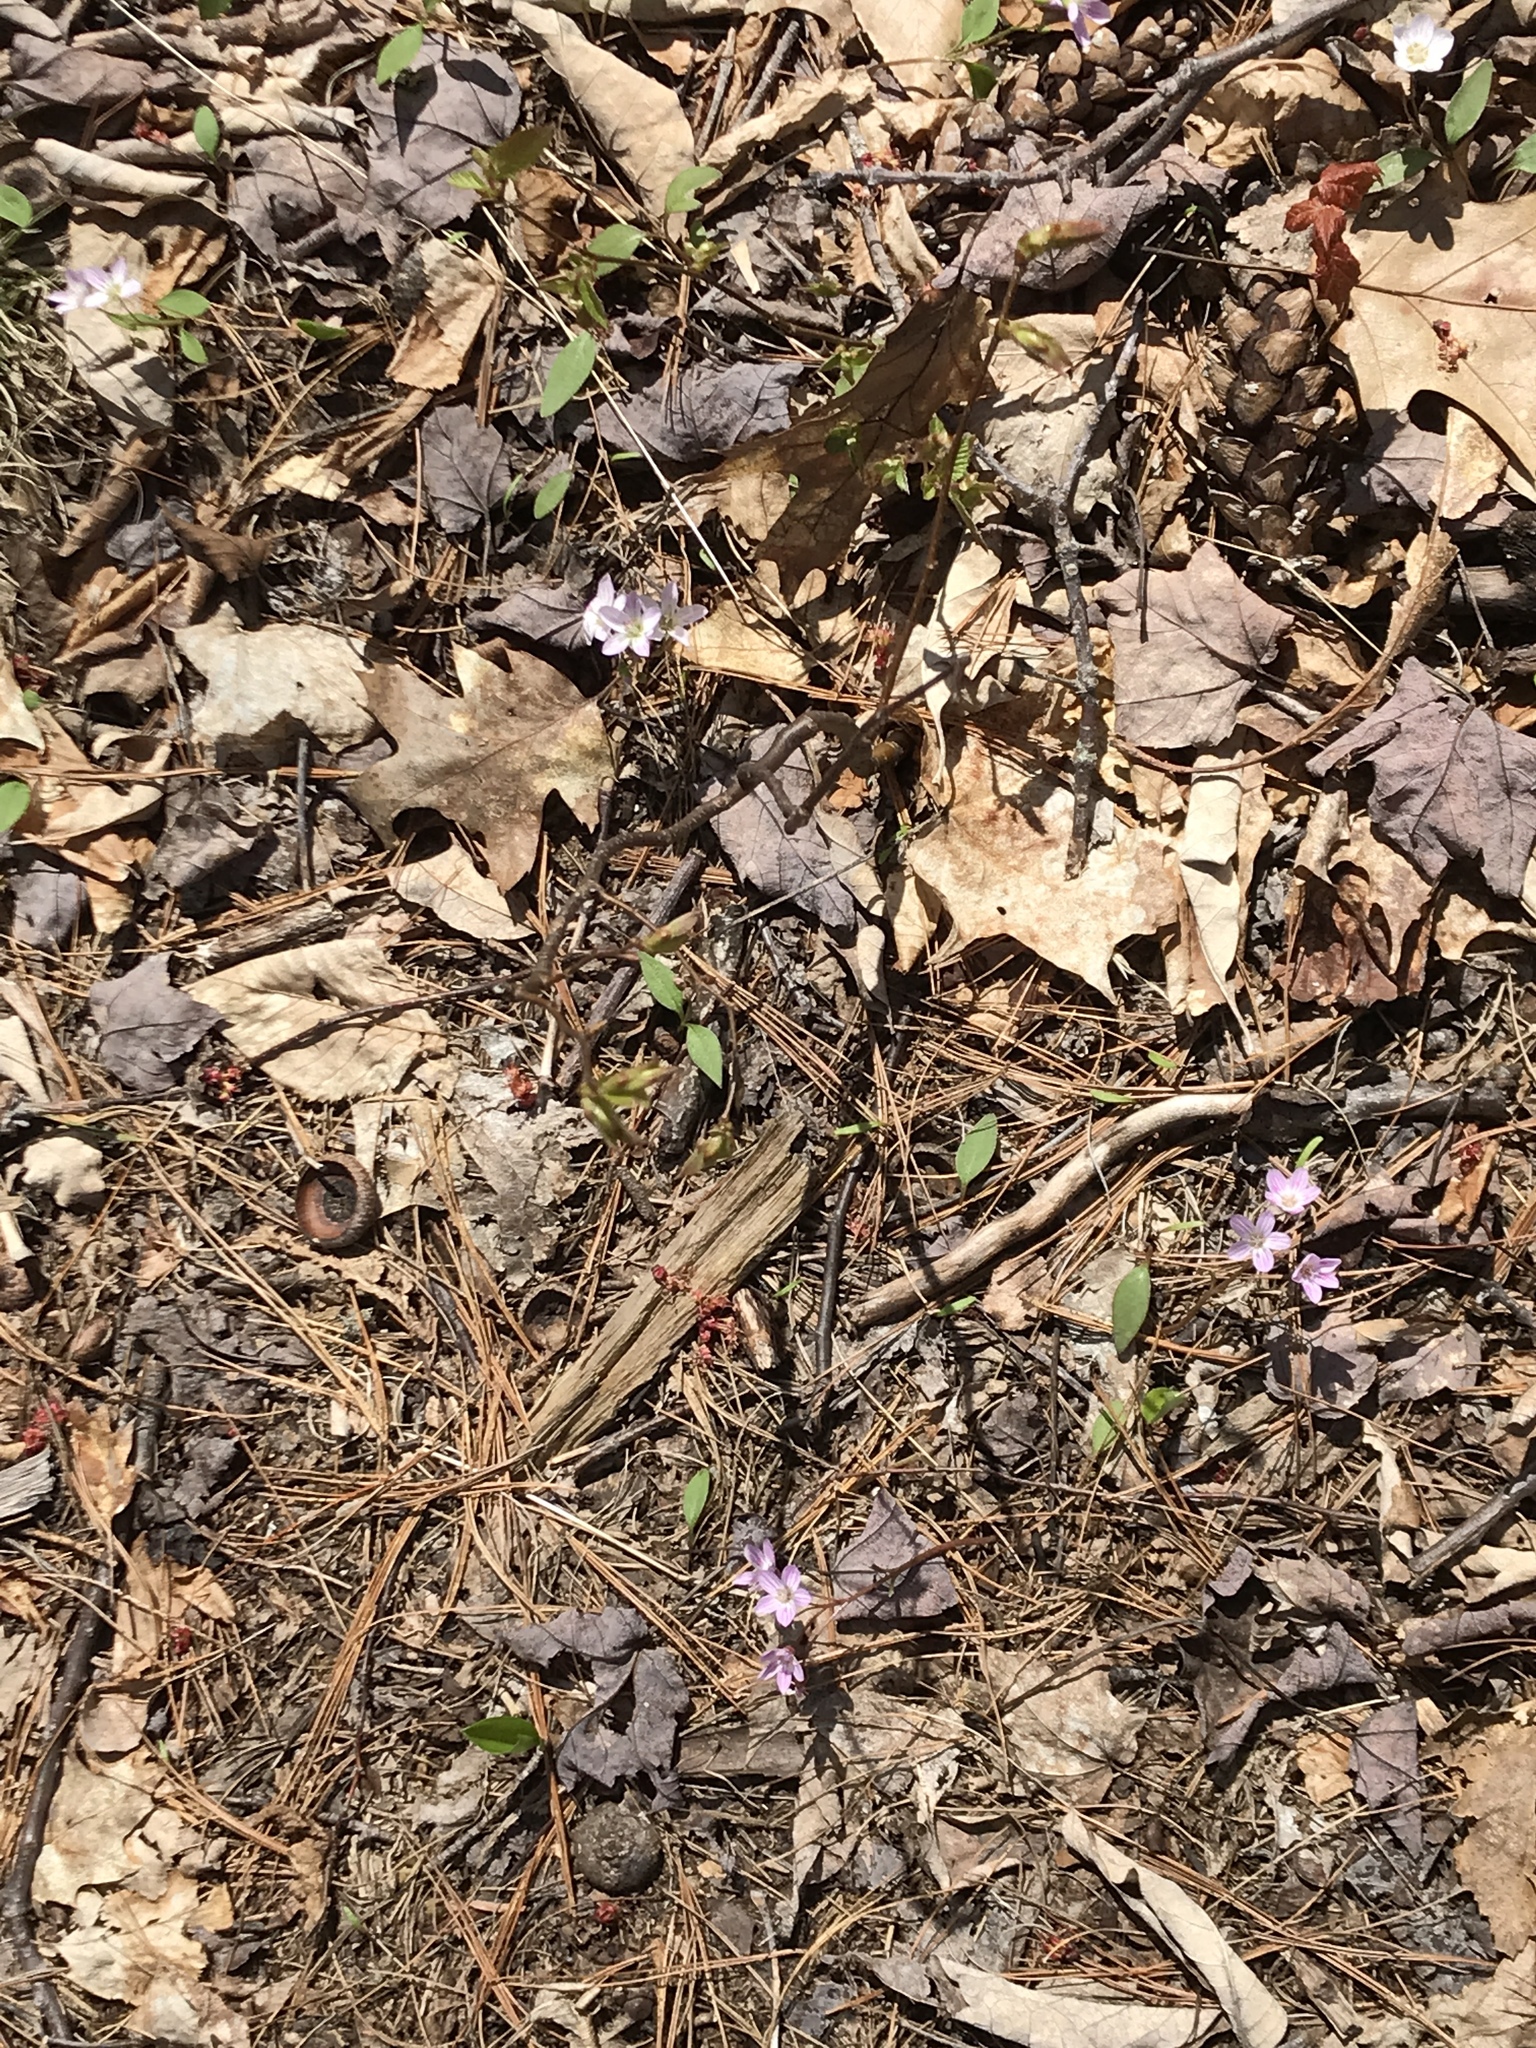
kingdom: Plantae
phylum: Tracheophyta
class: Magnoliopsida
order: Caryophyllales
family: Montiaceae
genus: Claytonia
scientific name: Claytonia caroliniana
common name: Carolina spring beauty
